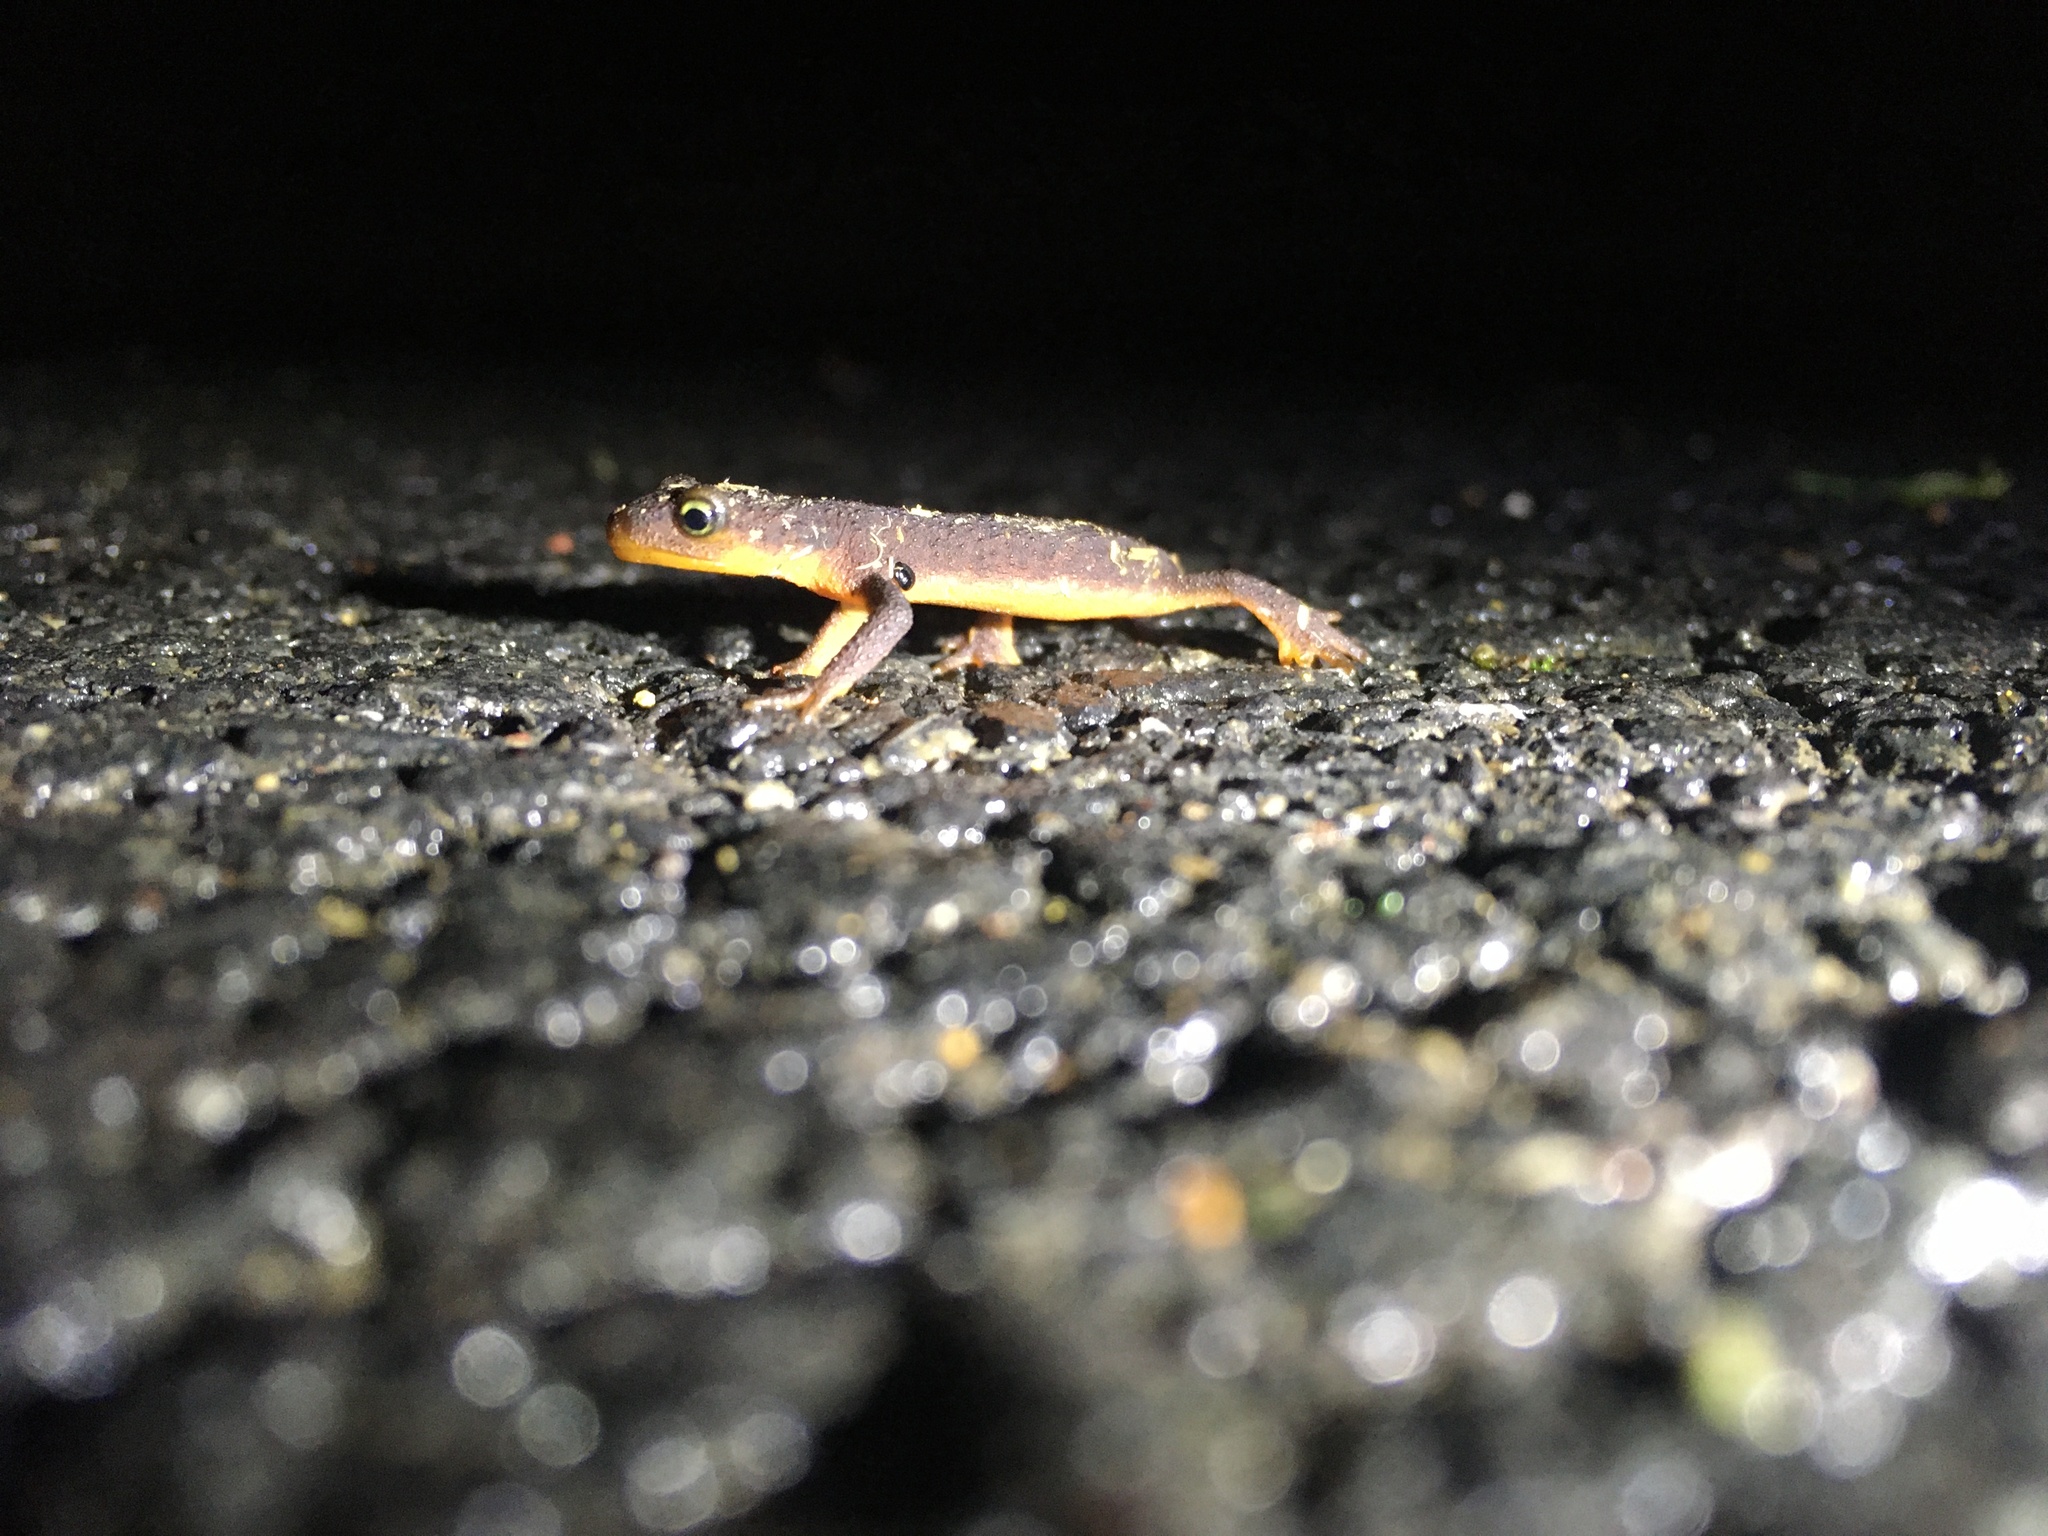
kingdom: Animalia
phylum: Chordata
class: Amphibia
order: Caudata
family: Salamandridae
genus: Taricha
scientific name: Taricha torosa
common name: California newt
